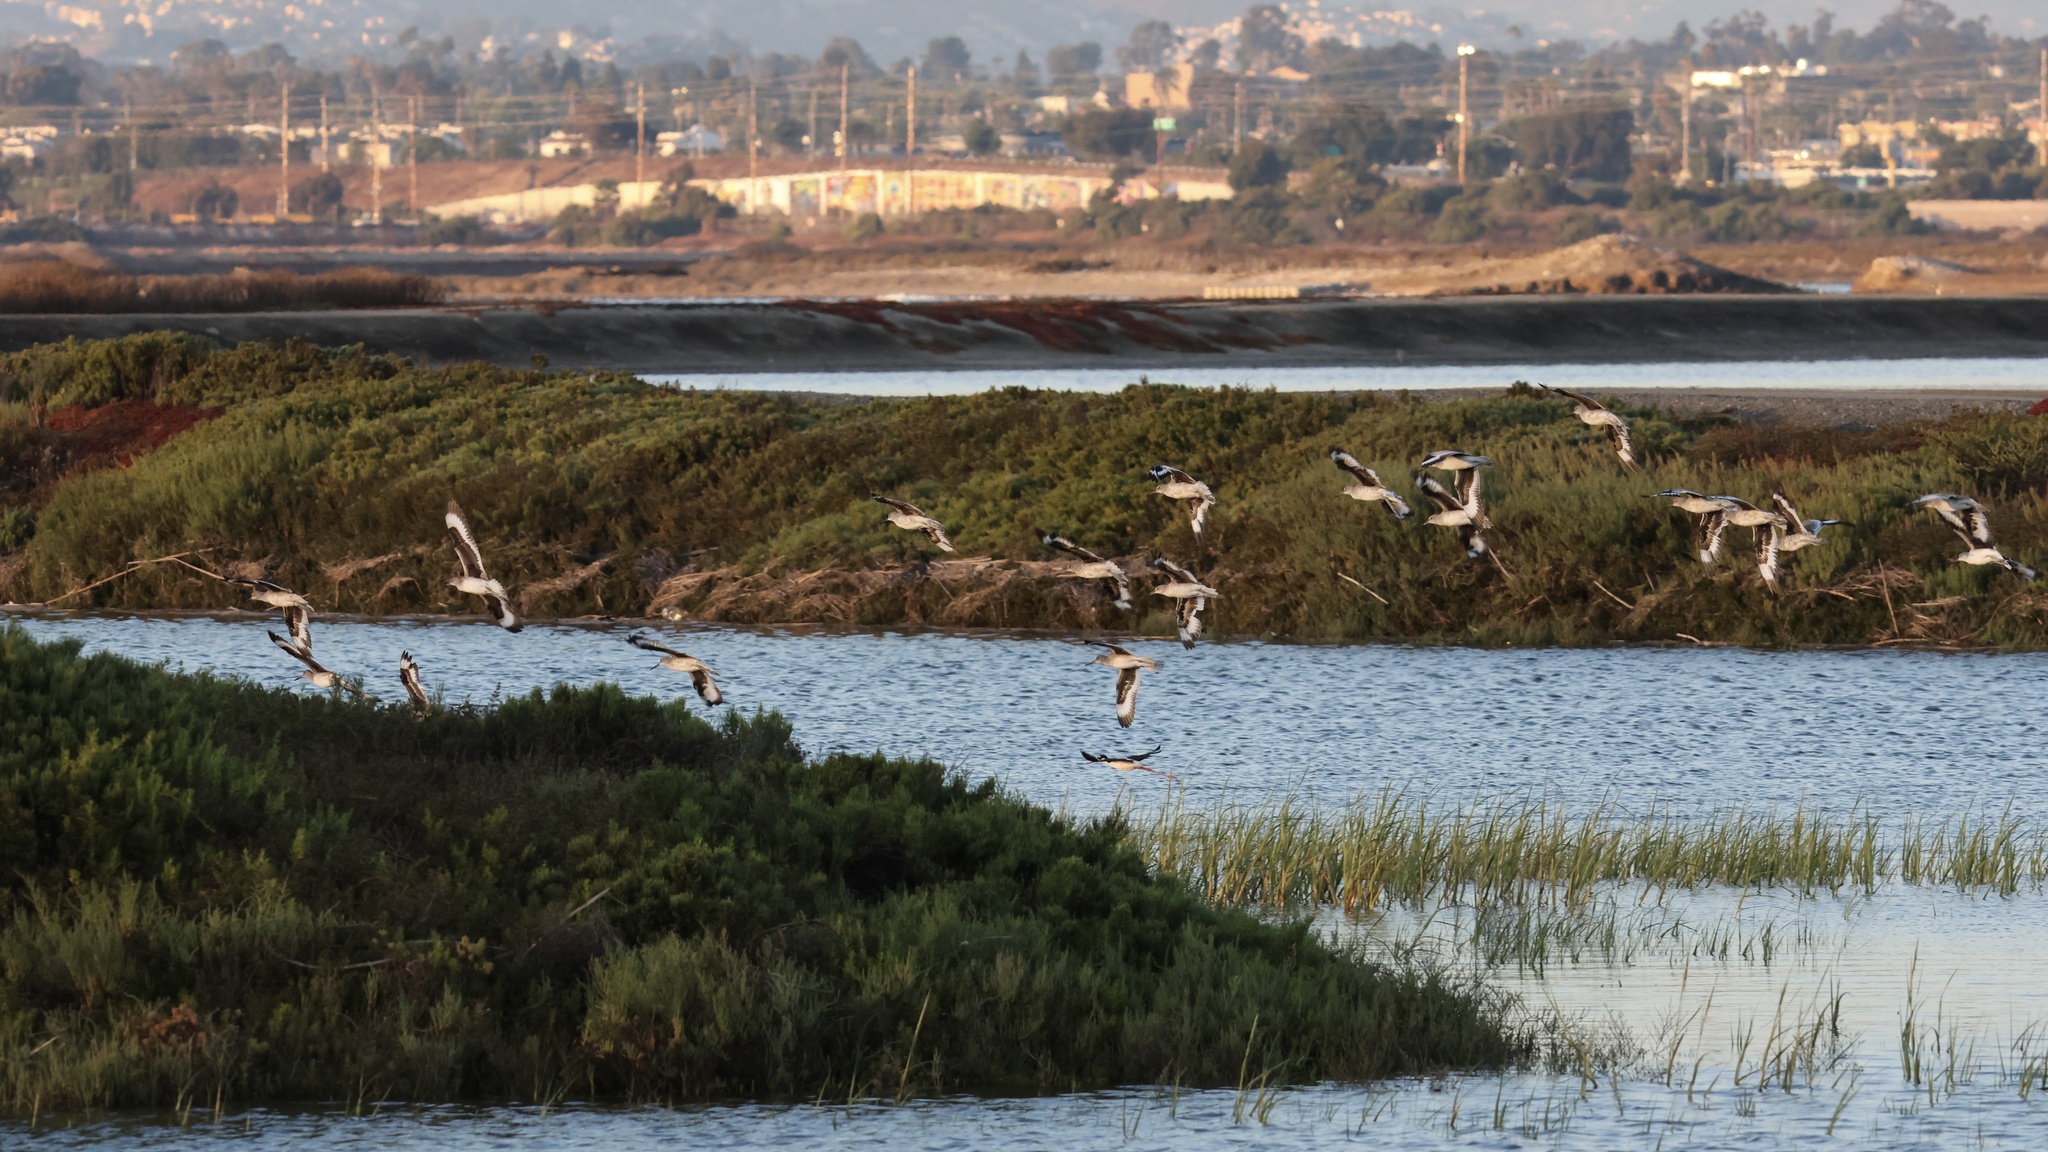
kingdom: Animalia
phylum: Chordata
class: Aves
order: Charadriiformes
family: Scolopacidae
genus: Tringa
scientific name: Tringa semipalmata
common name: Willet
